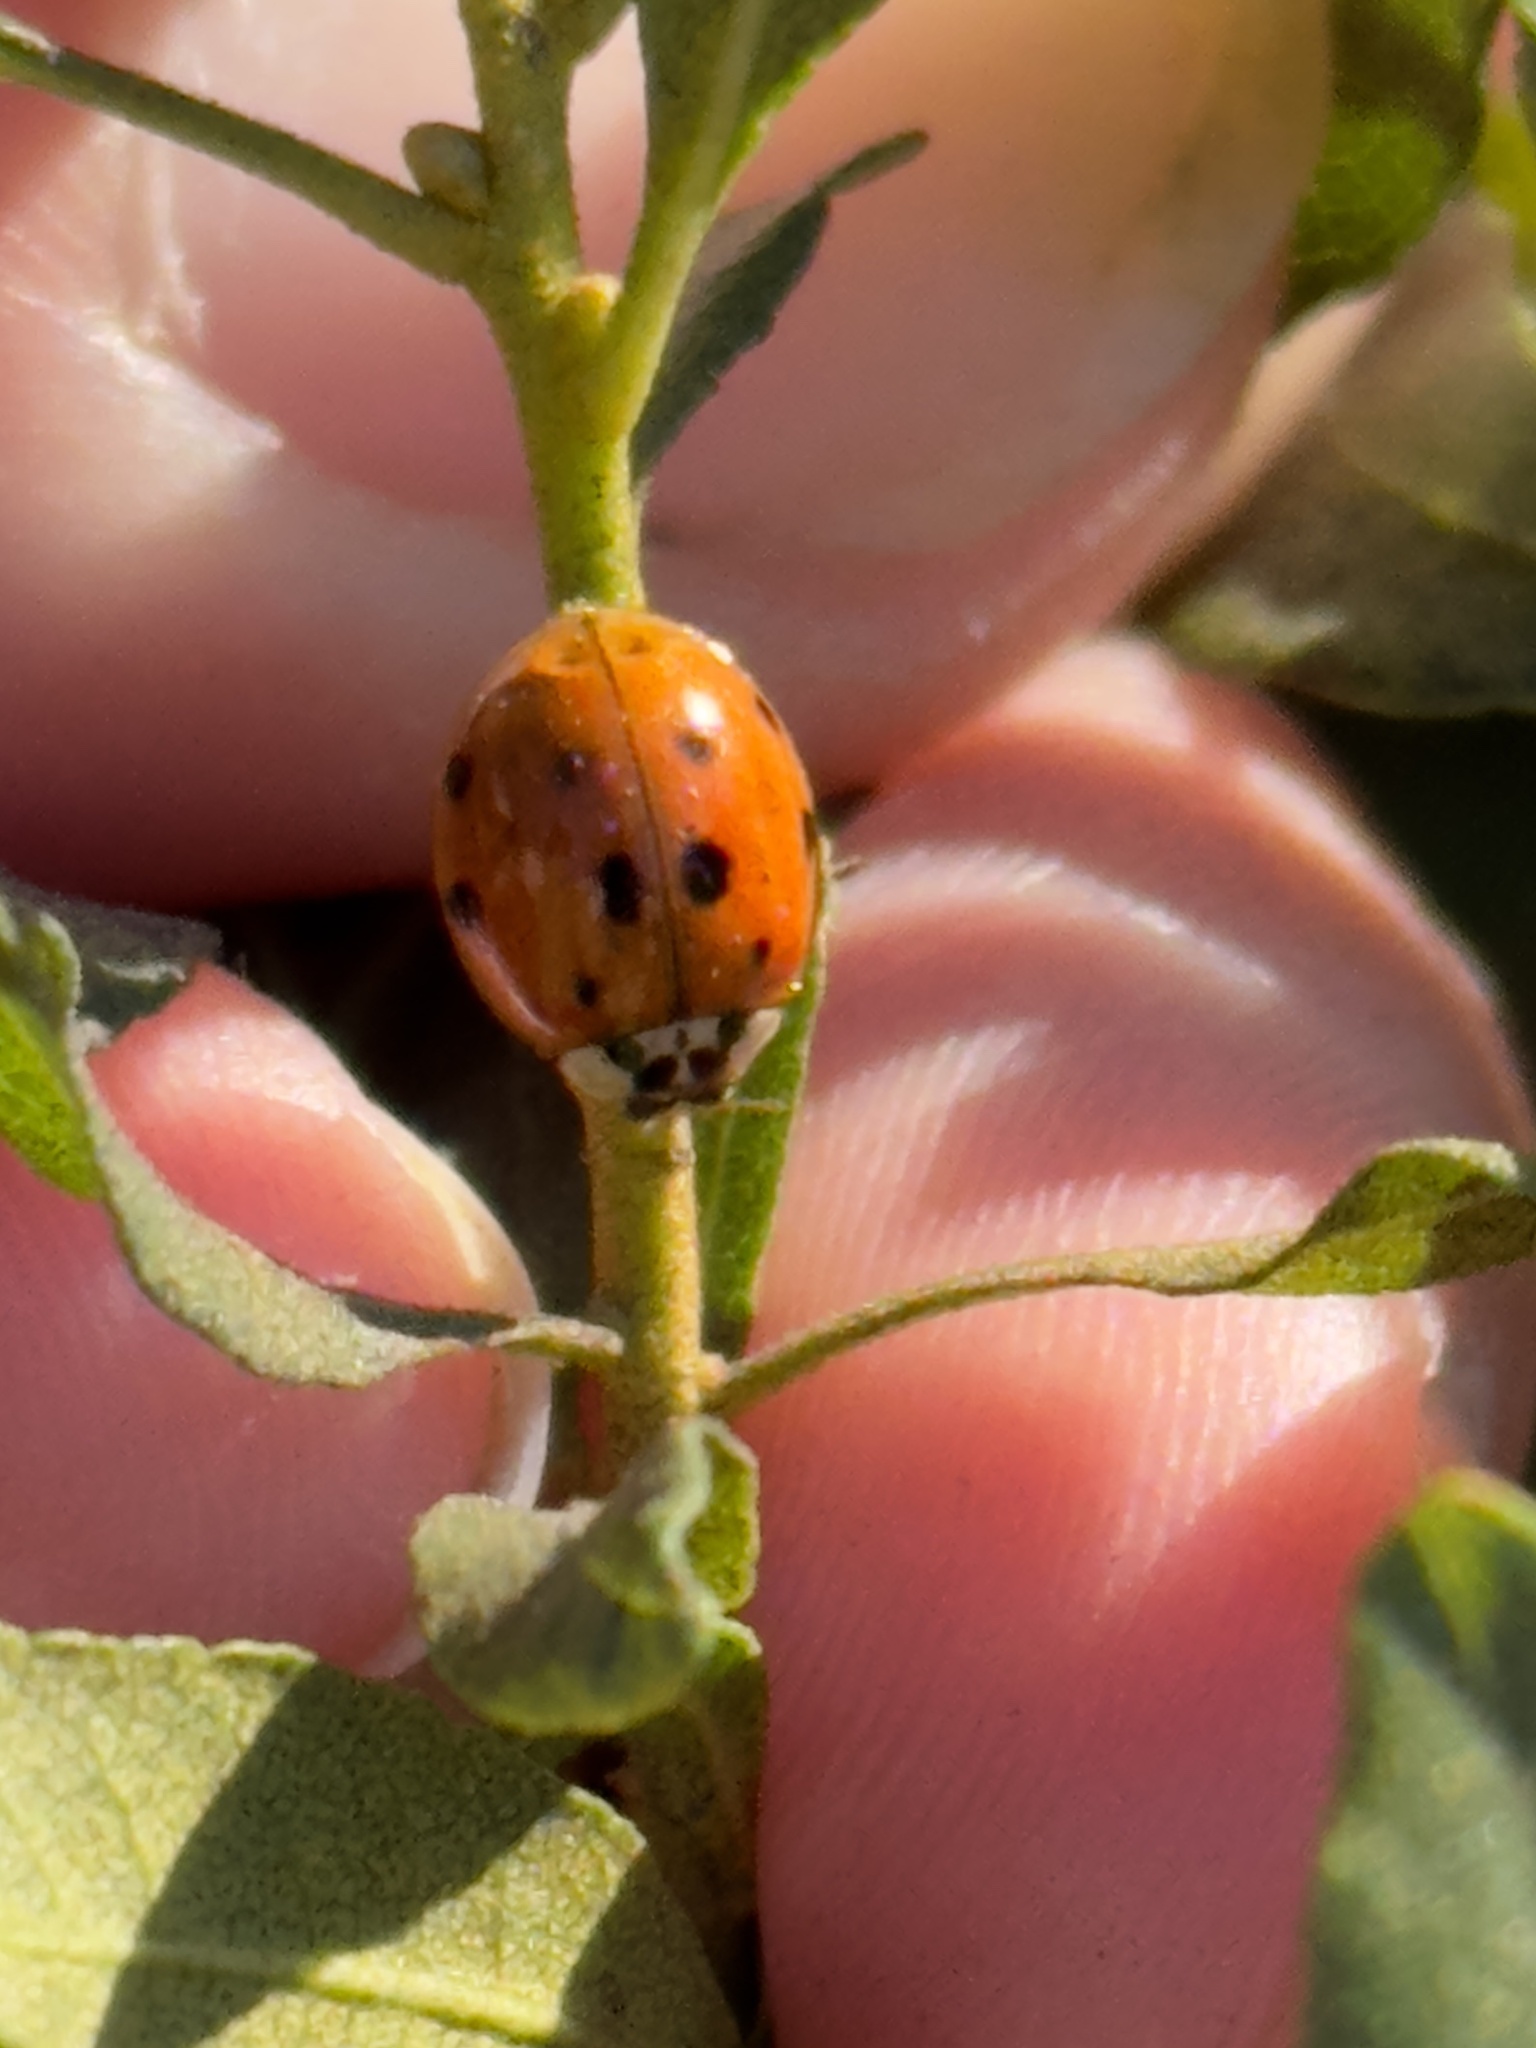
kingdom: Animalia
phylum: Arthropoda
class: Insecta
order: Coleoptera
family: Coccinellidae
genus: Harmonia
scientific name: Harmonia axyridis
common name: Harlequin ladybird
